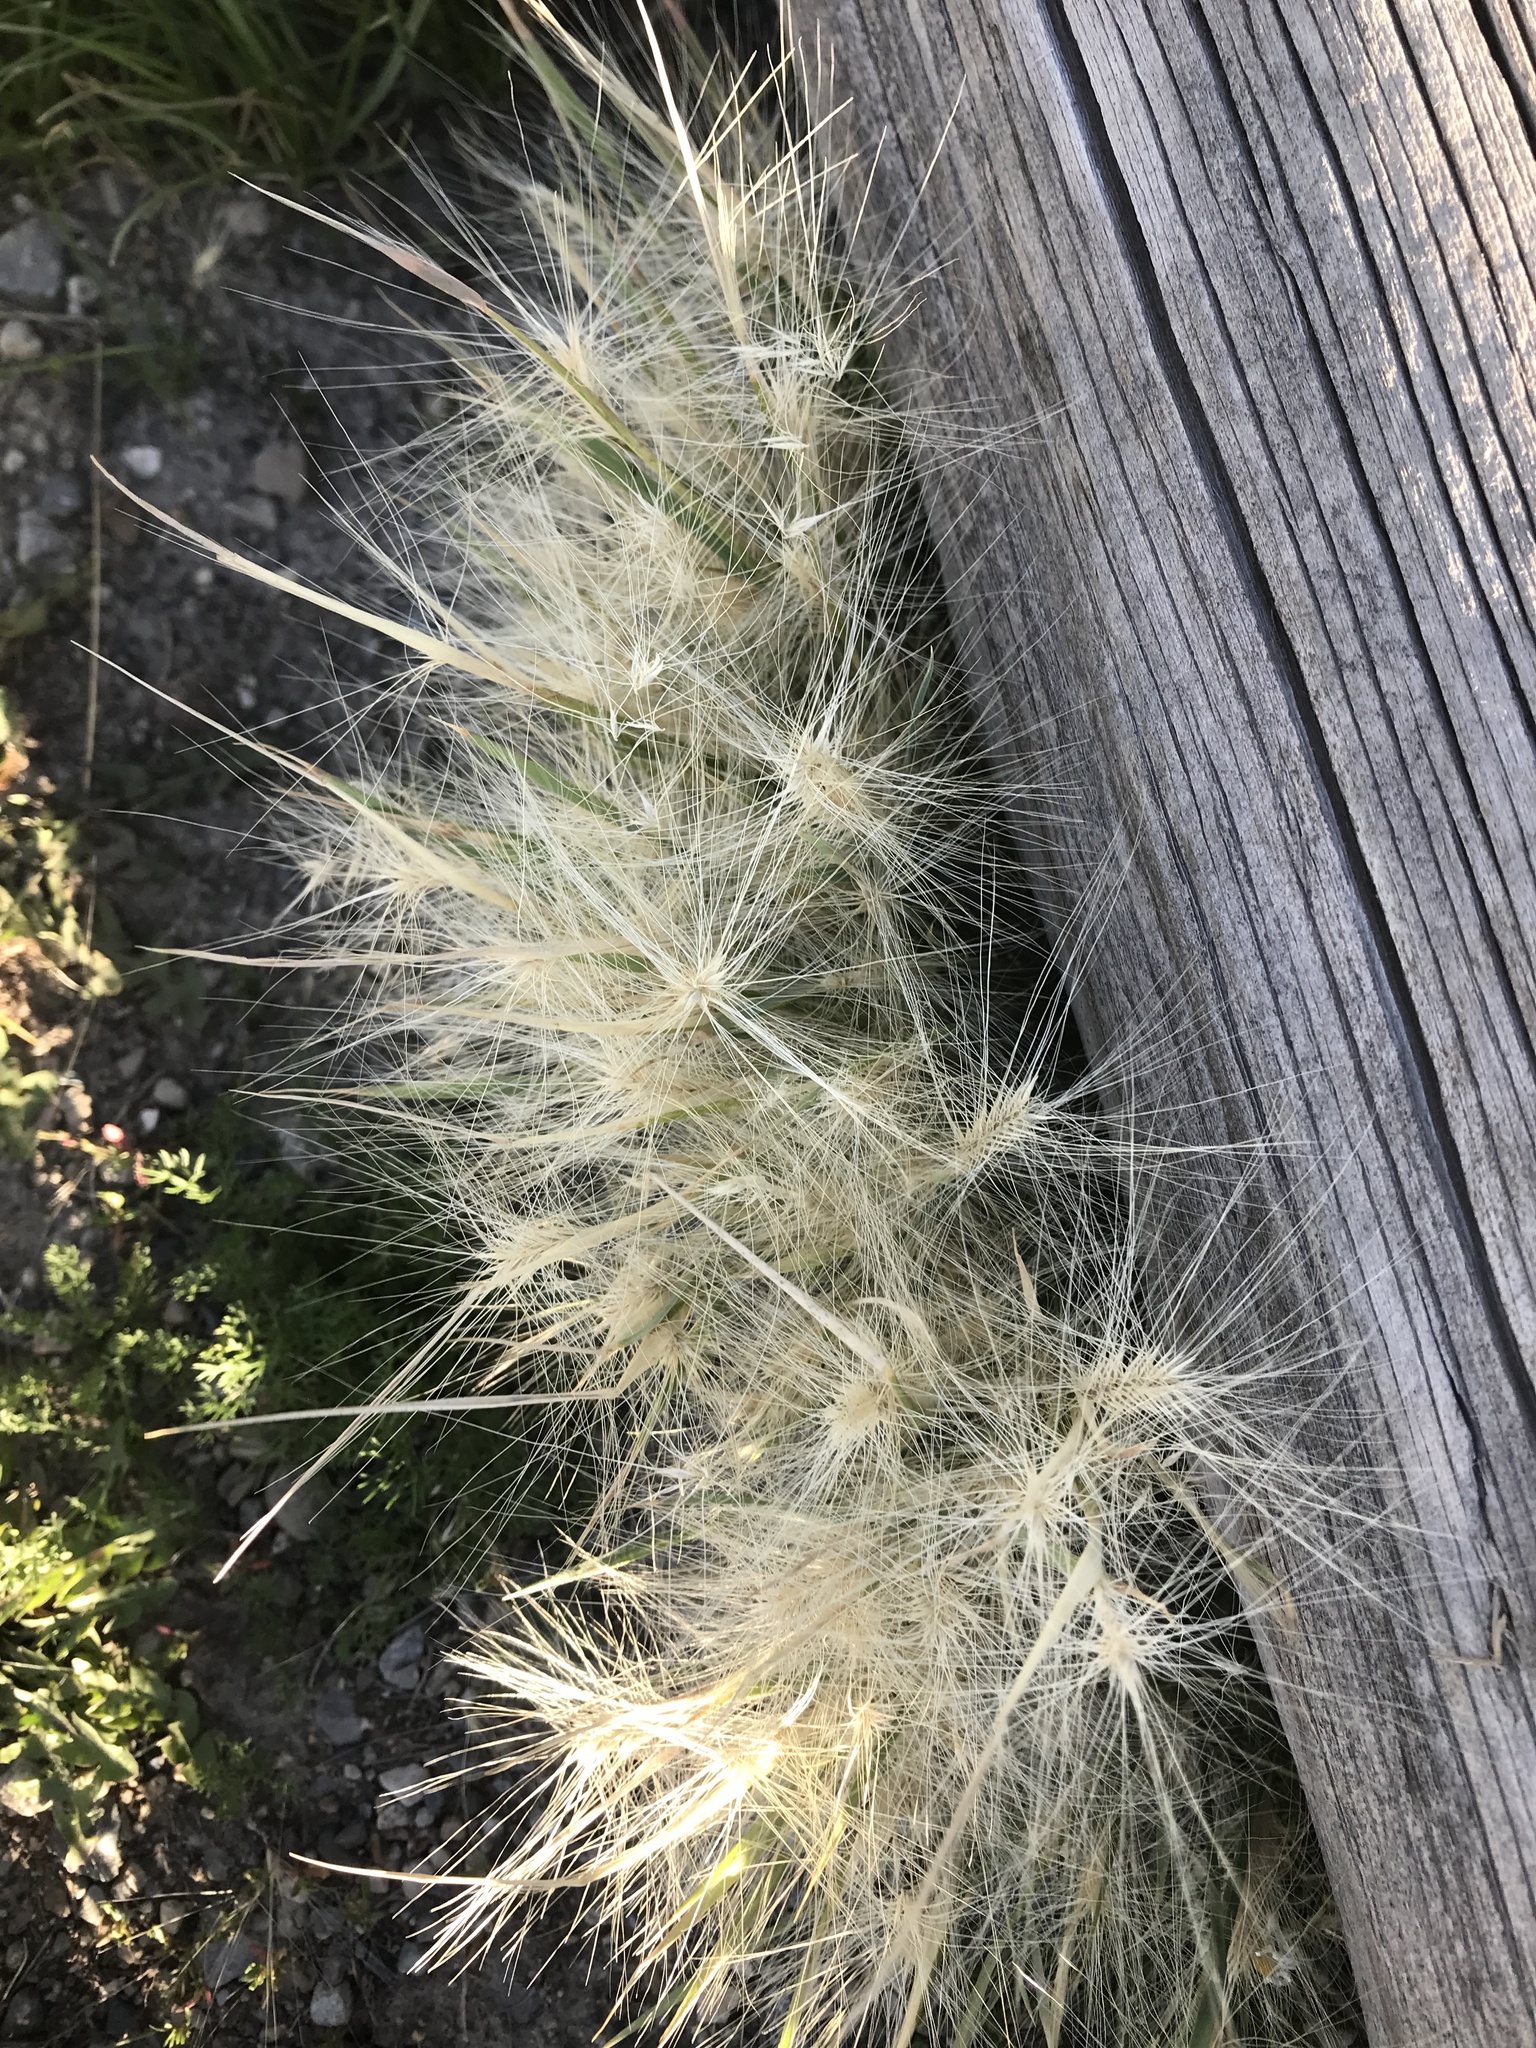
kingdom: Plantae
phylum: Tracheophyta
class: Liliopsida
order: Poales
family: Poaceae
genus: Hordeum
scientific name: Hordeum jubatum
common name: Foxtail barley
